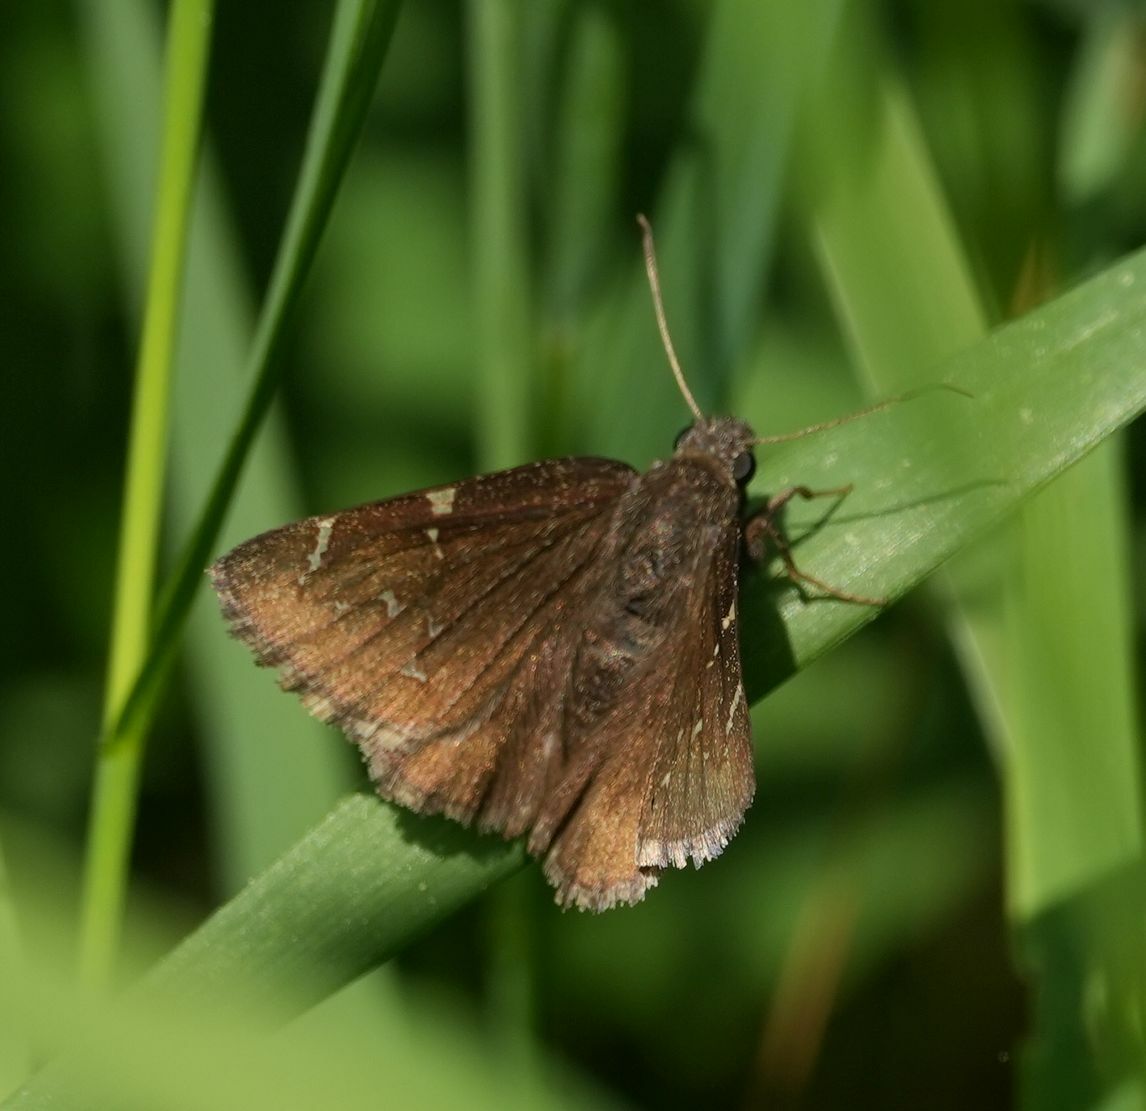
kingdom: Animalia
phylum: Arthropoda
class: Insecta
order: Lepidoptera
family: Hesperiidae
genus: Thorybes
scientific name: Thorybes pylades
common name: Northern cloudywing
